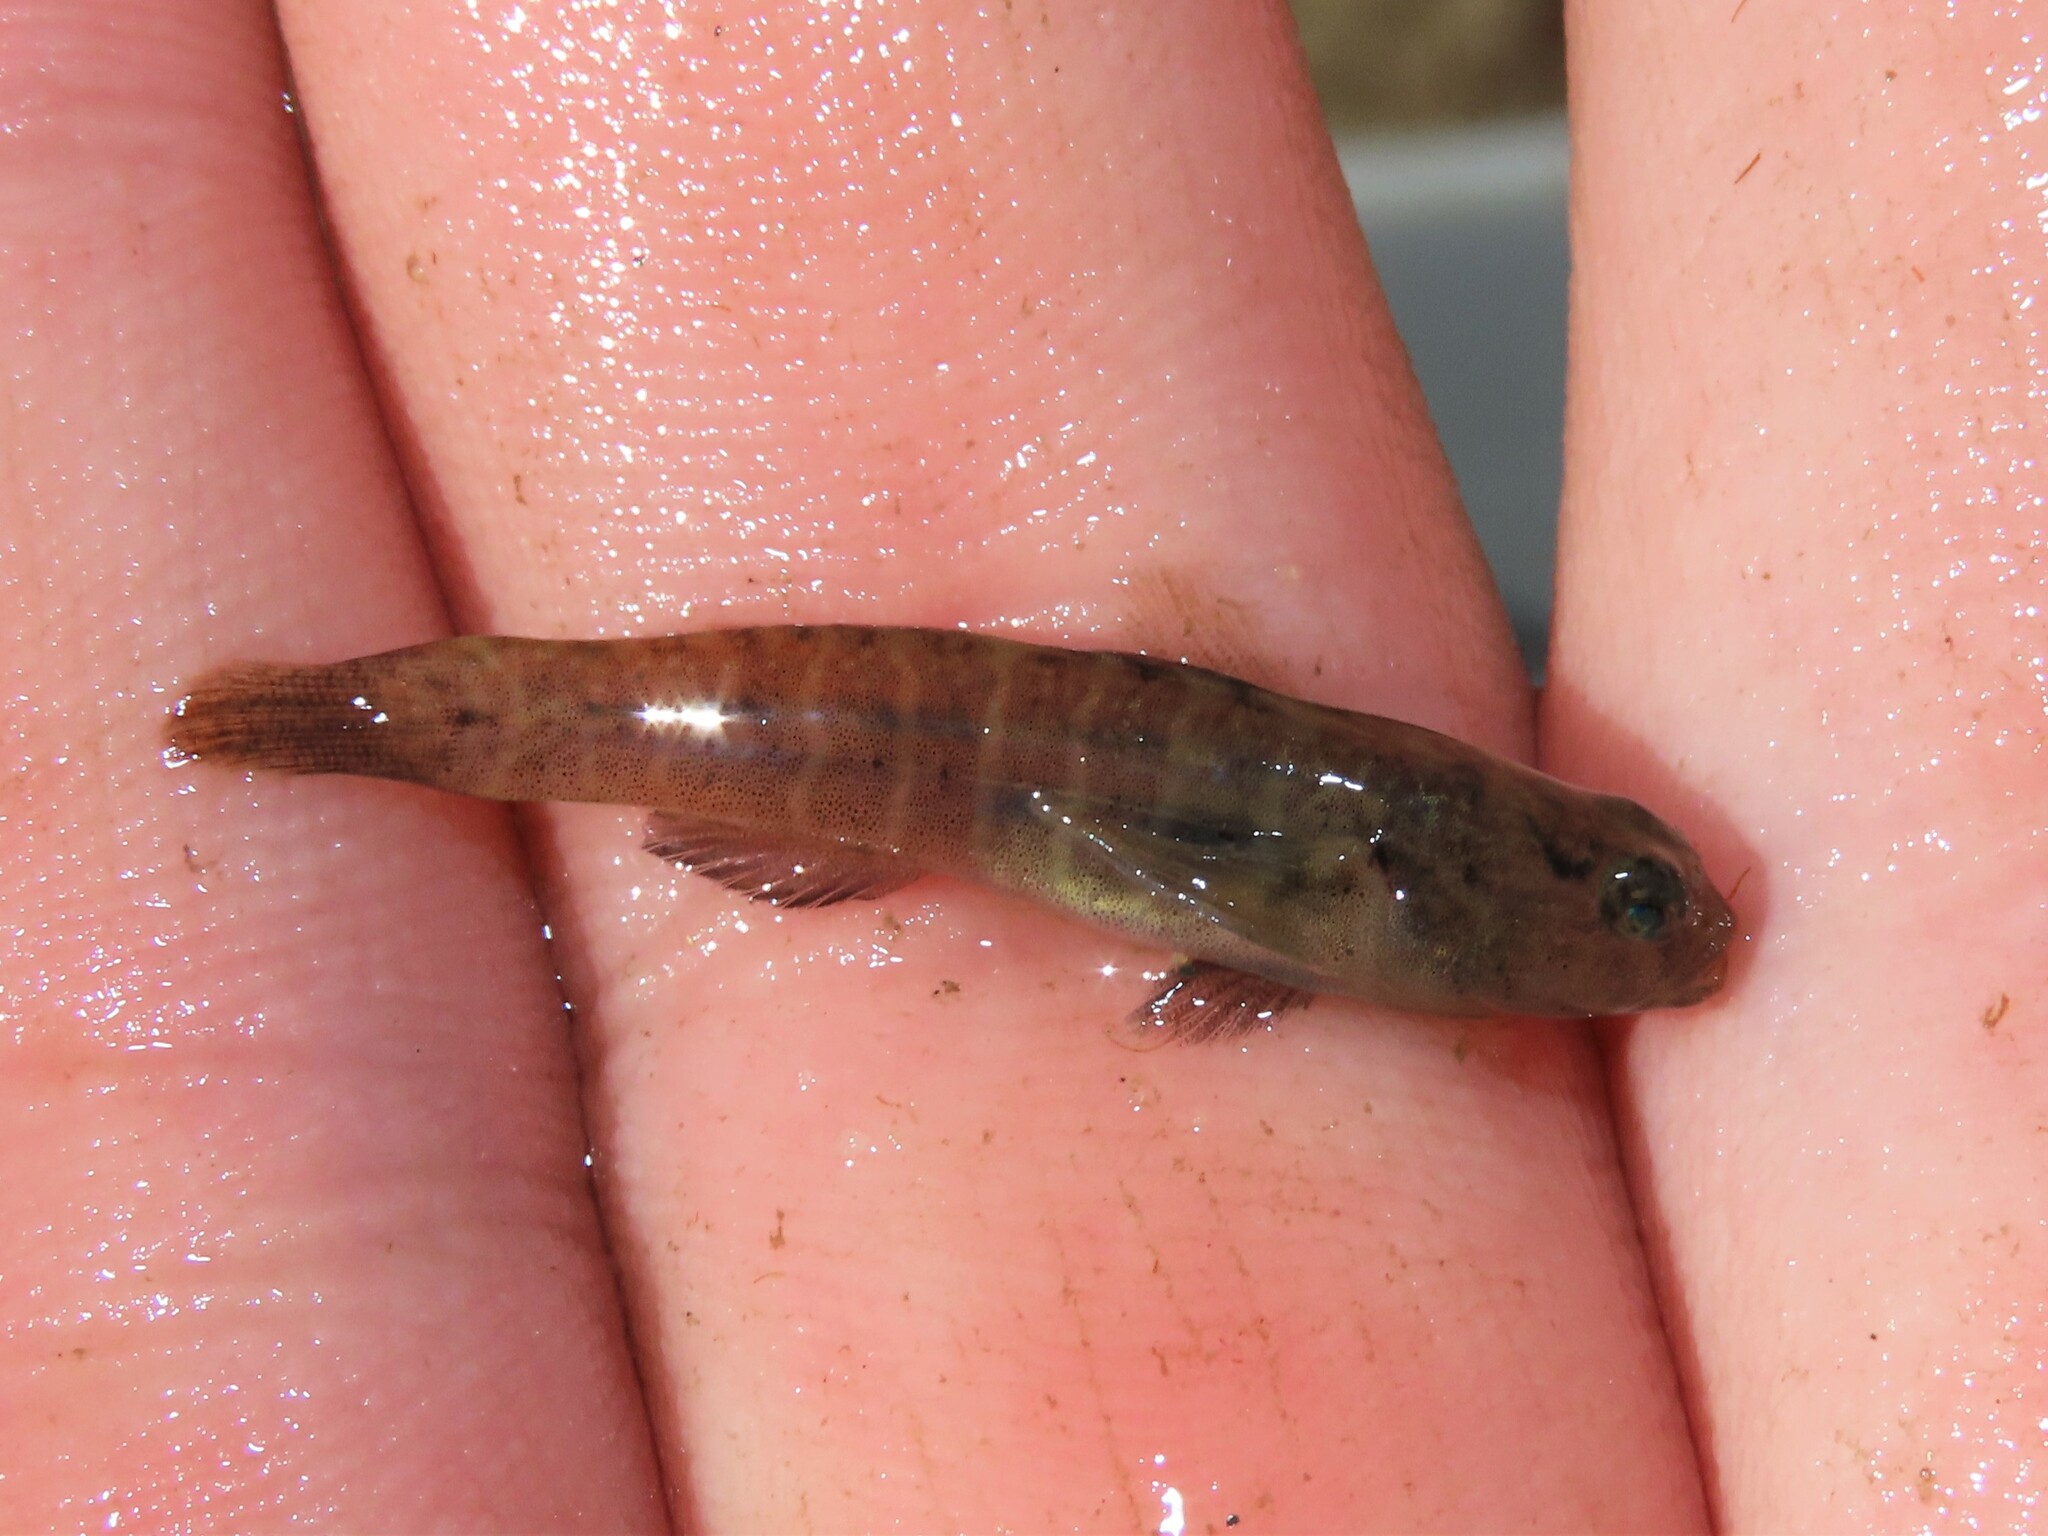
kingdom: Animalia
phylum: Chordata
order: Perciformes
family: Gobiidae
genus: Gobiosoma
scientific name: Gobiosoma bosc
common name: Naked goby
